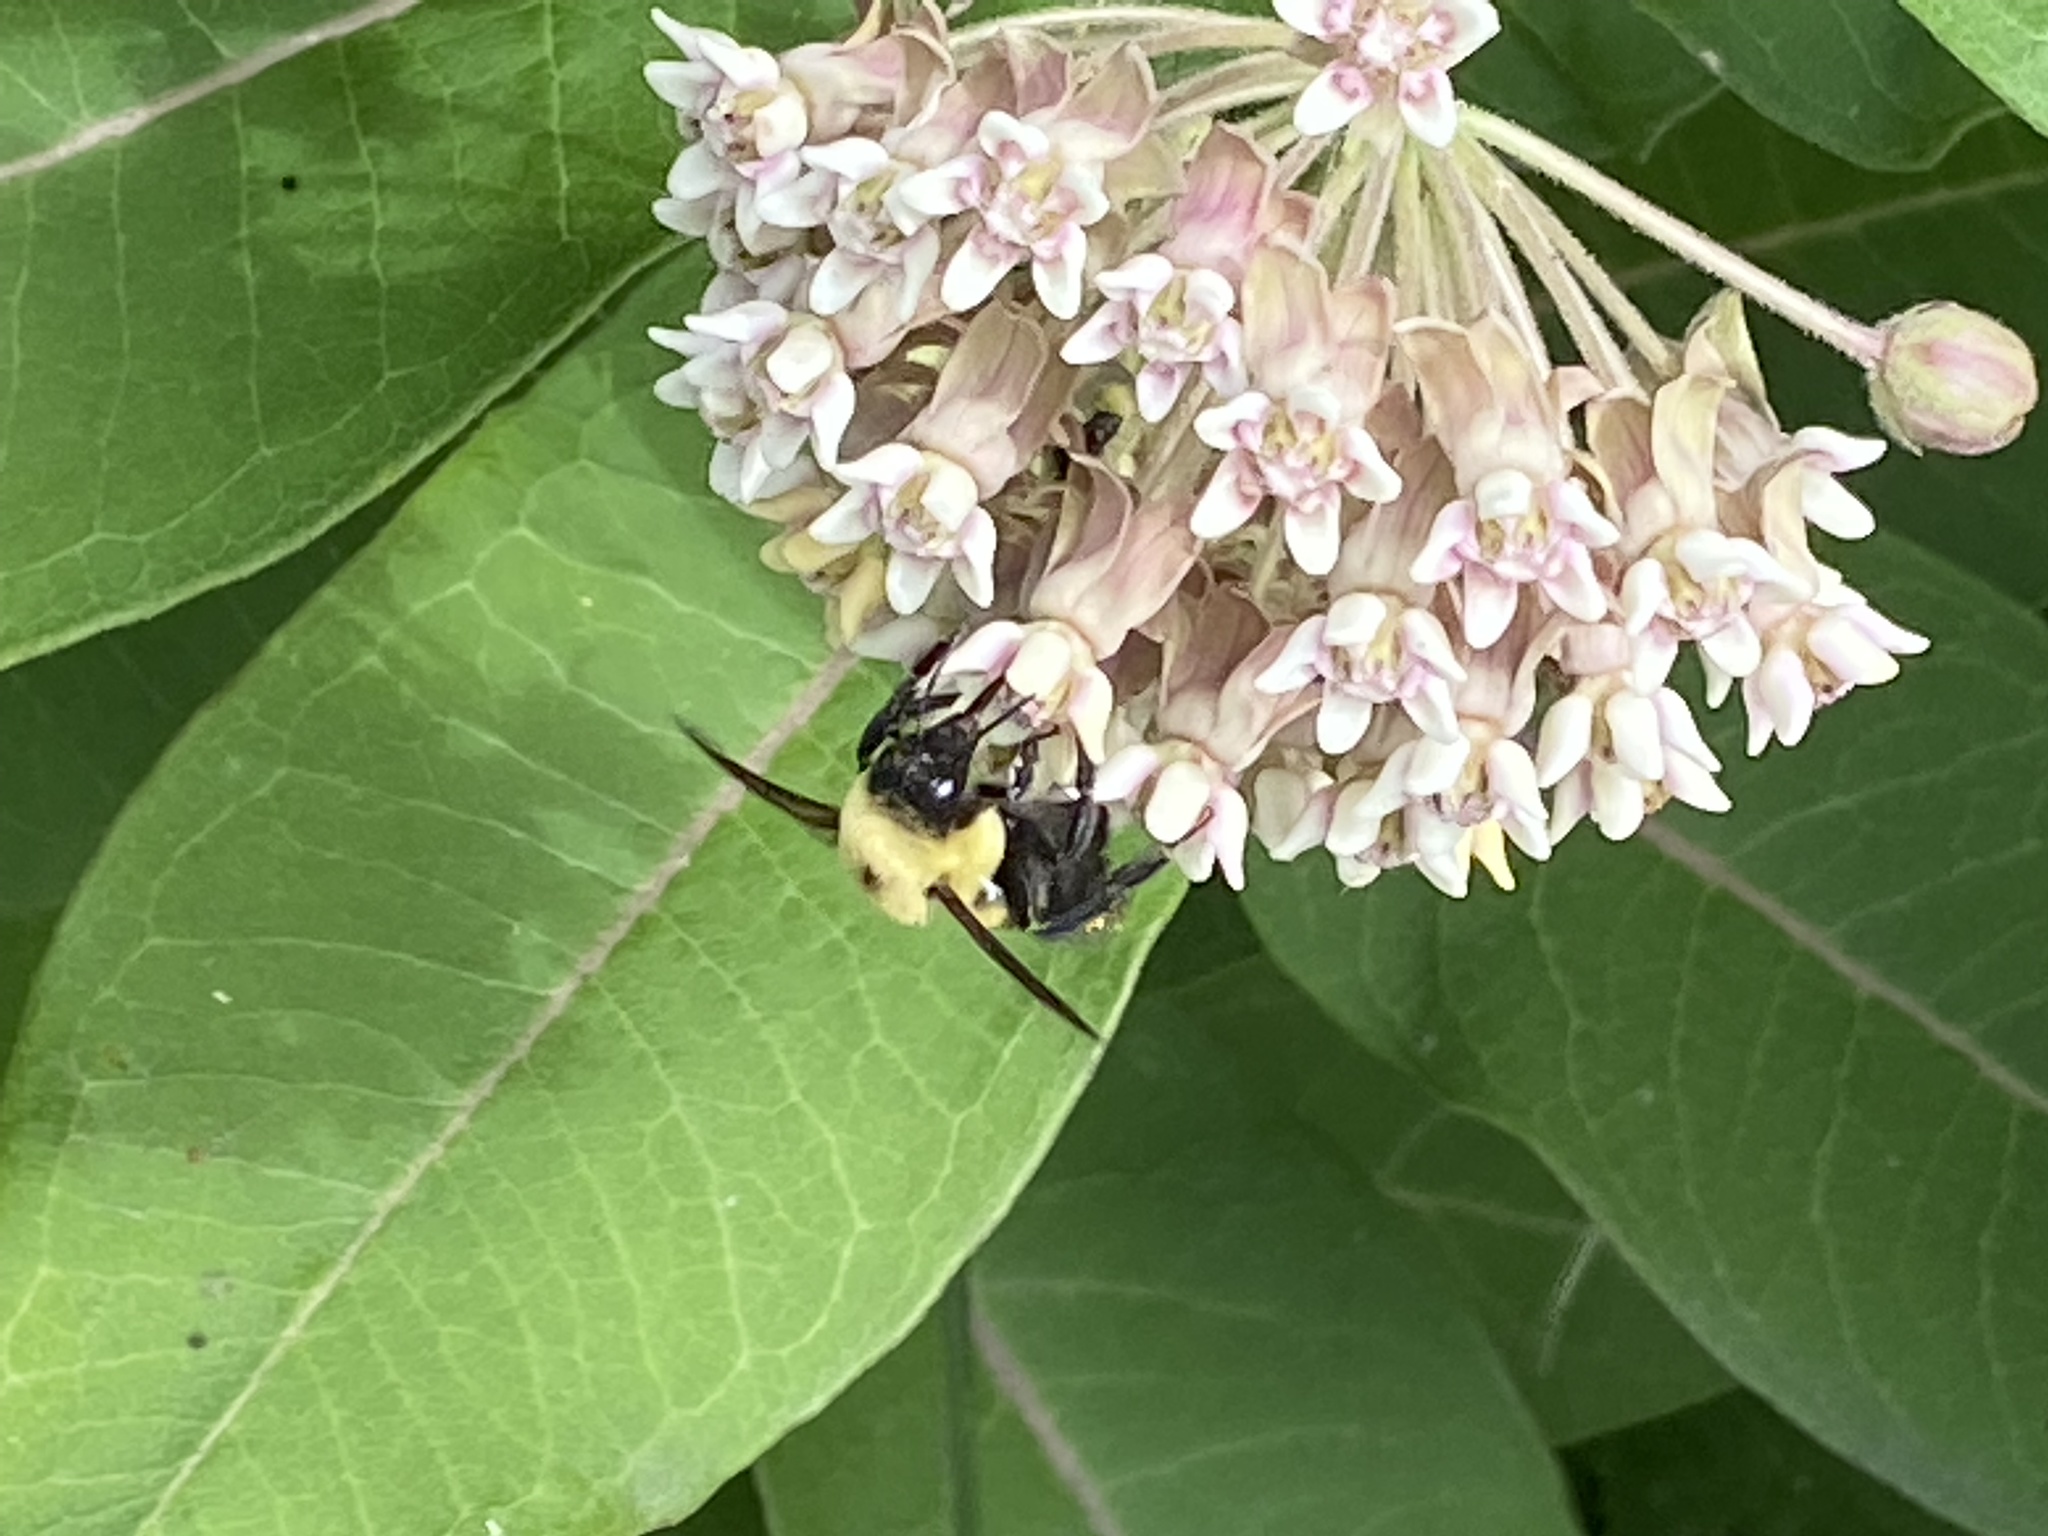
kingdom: Animalia
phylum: Arthropoda
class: Insecta
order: Hymenoptera
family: Apidae
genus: Bombus
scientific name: Bombus griseocollis
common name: Brown-belted bumble bee
